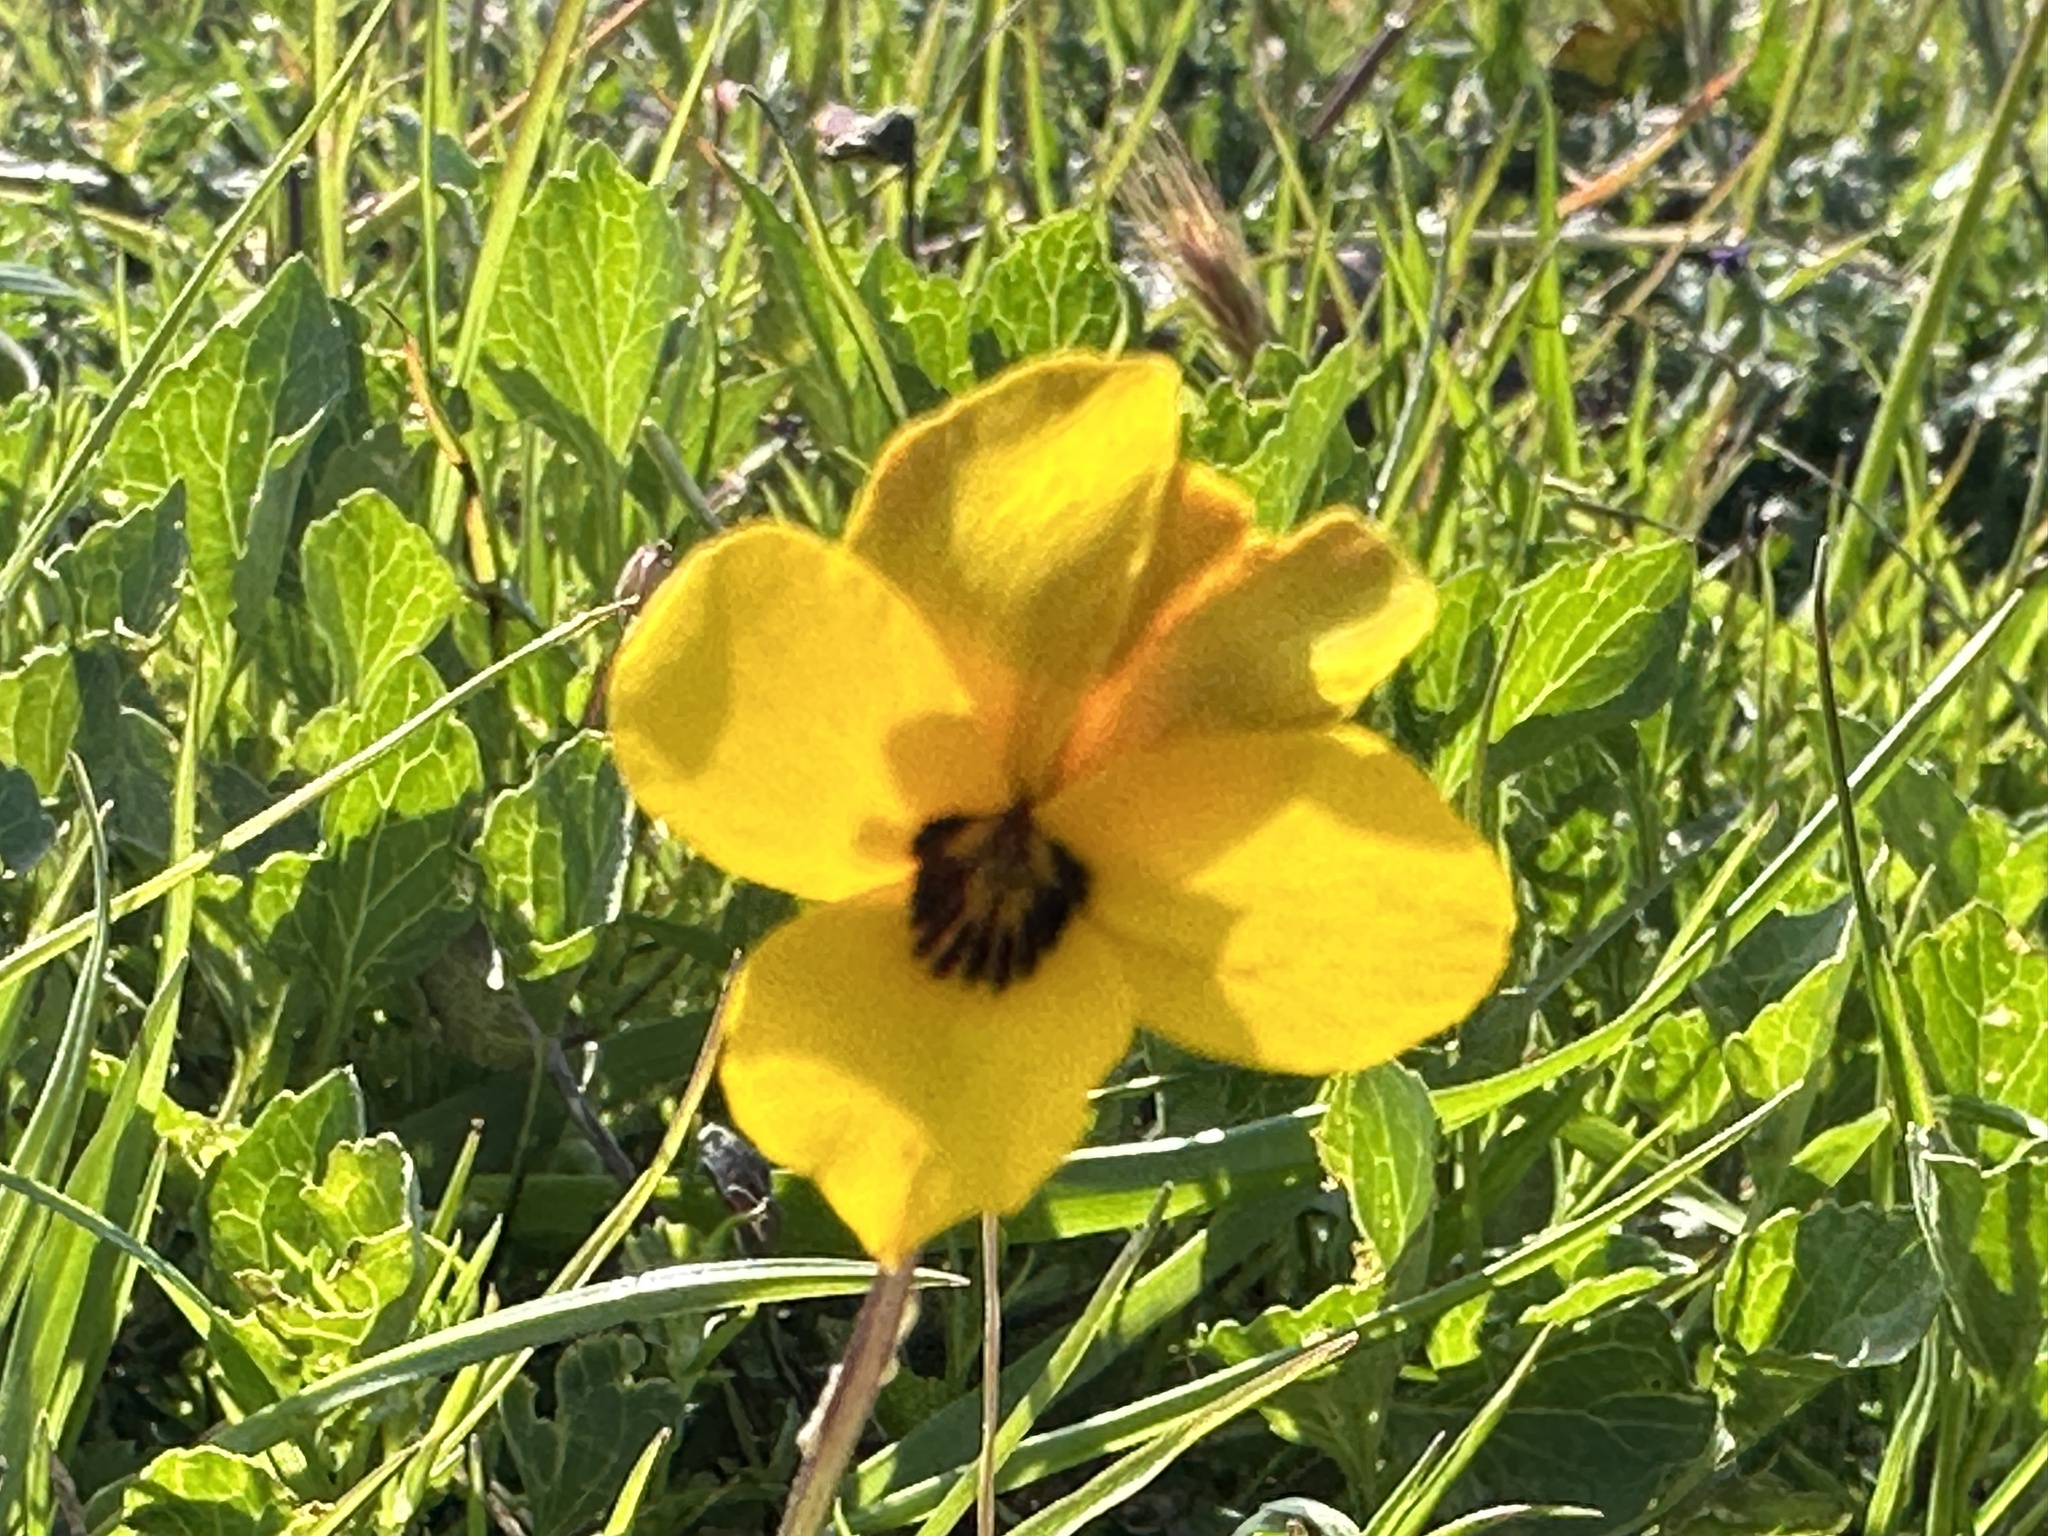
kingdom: Plantae
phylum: Tracheophyta
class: Magnoliopsida
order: Malpighiales
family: Violaceae
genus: Viola
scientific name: Viola pedunculata
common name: California golden violet
